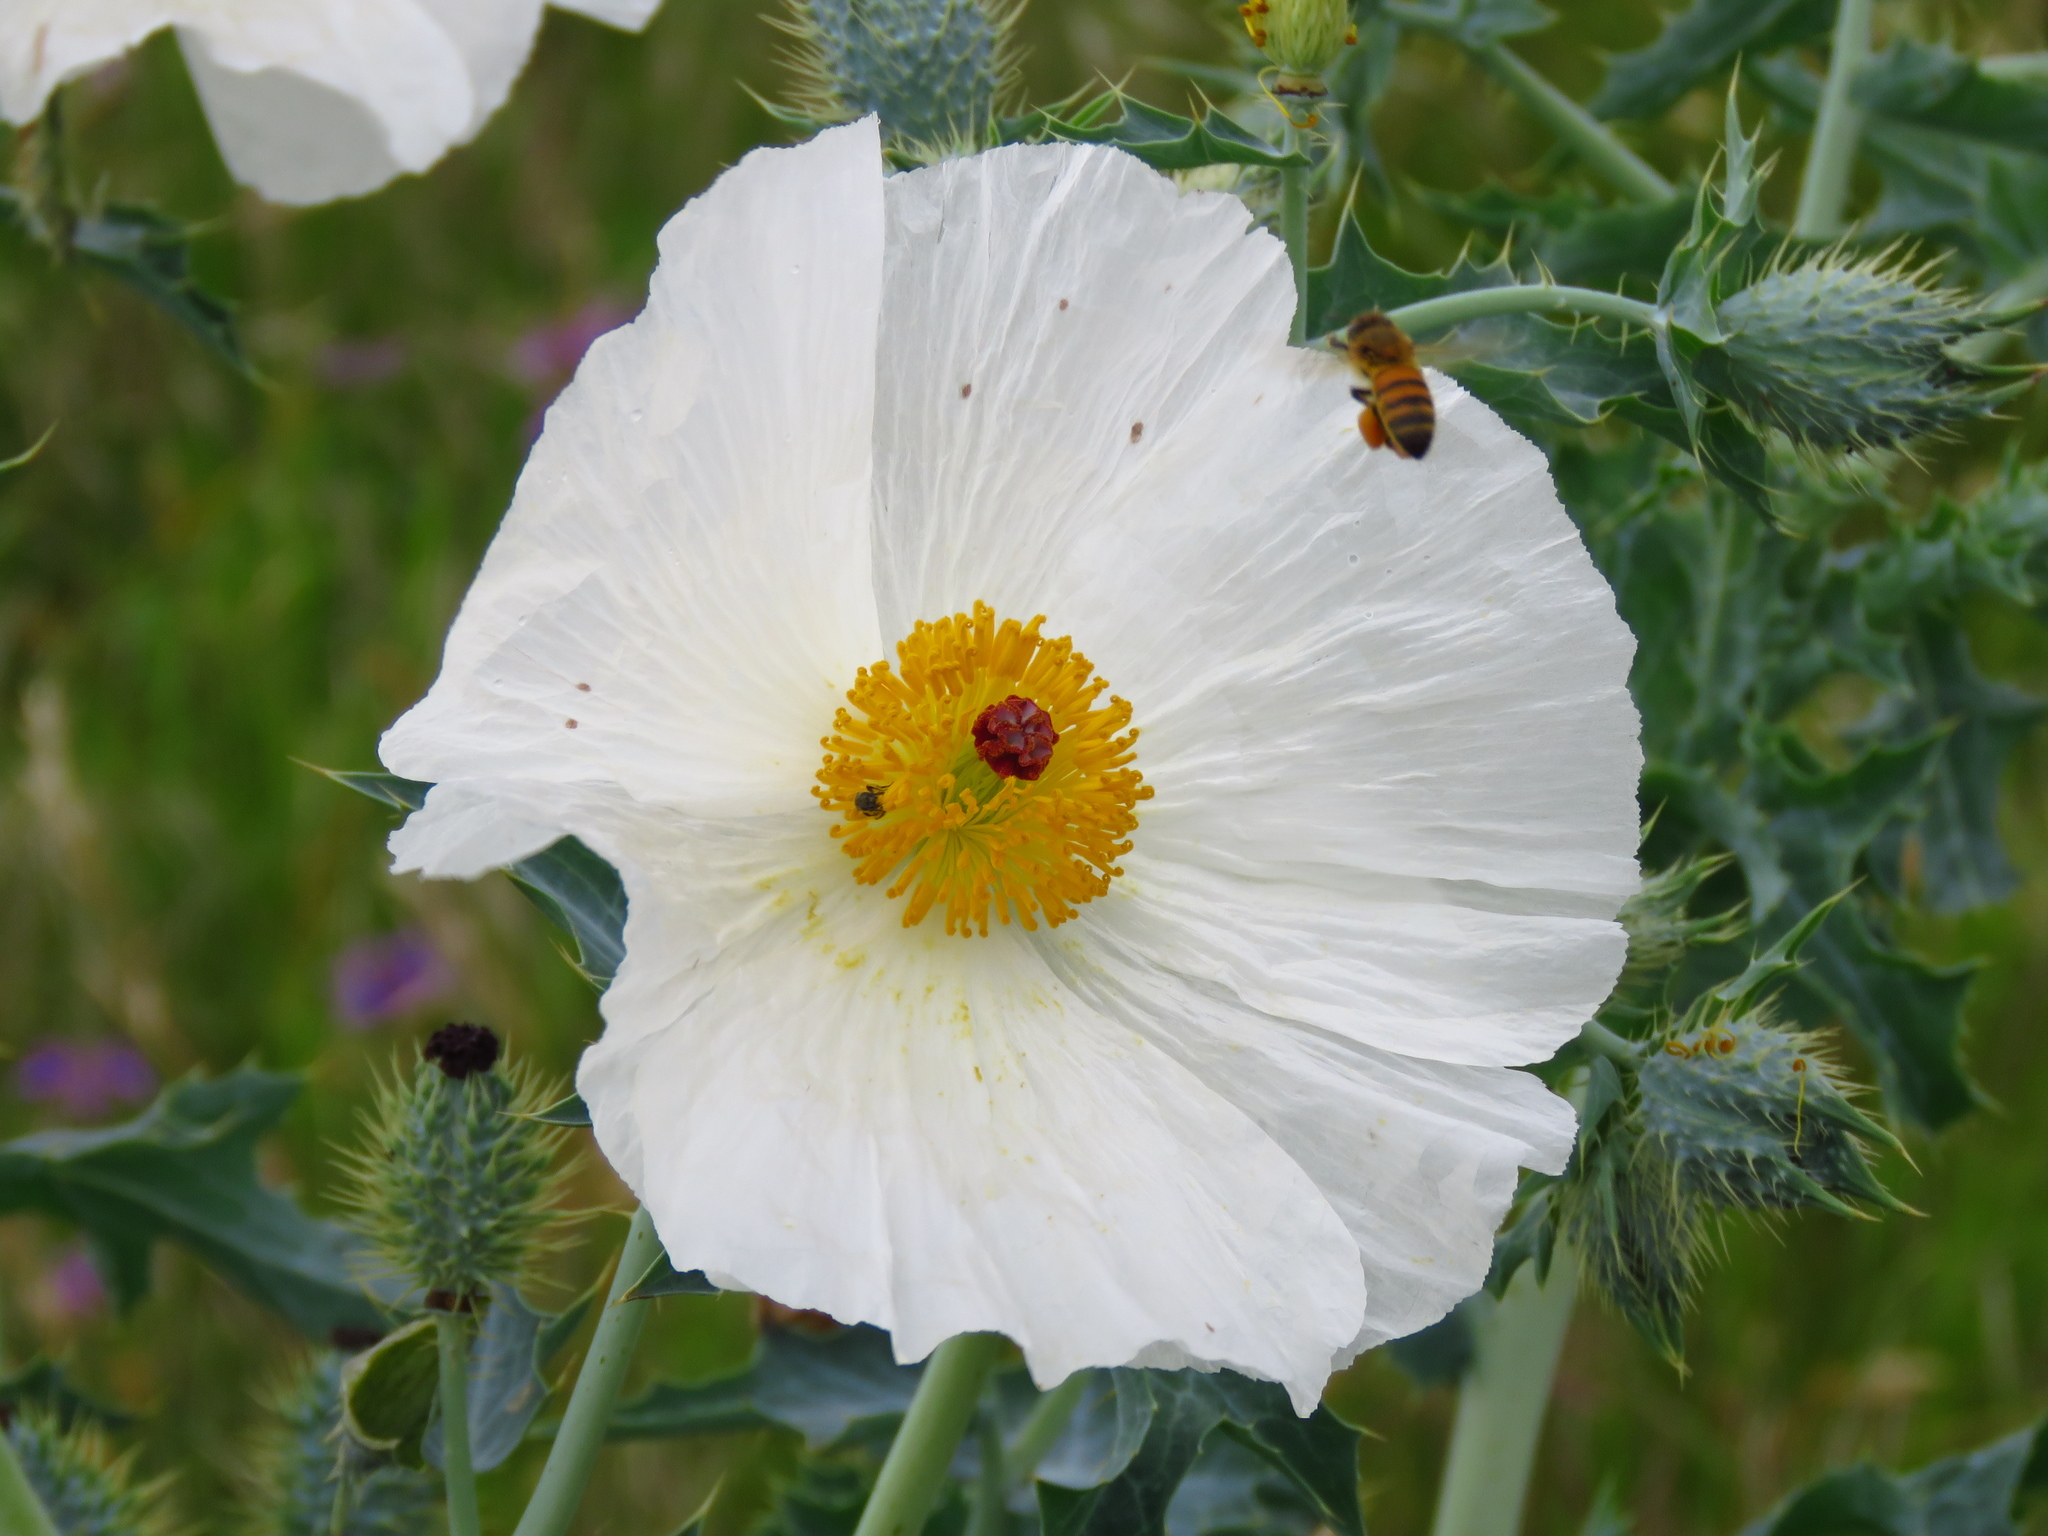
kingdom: Plantae
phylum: Tracheophyta
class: Magnoliopsida
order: Ranunculales
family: Papaveraceae
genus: Argemone
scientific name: Argemone albiflora
